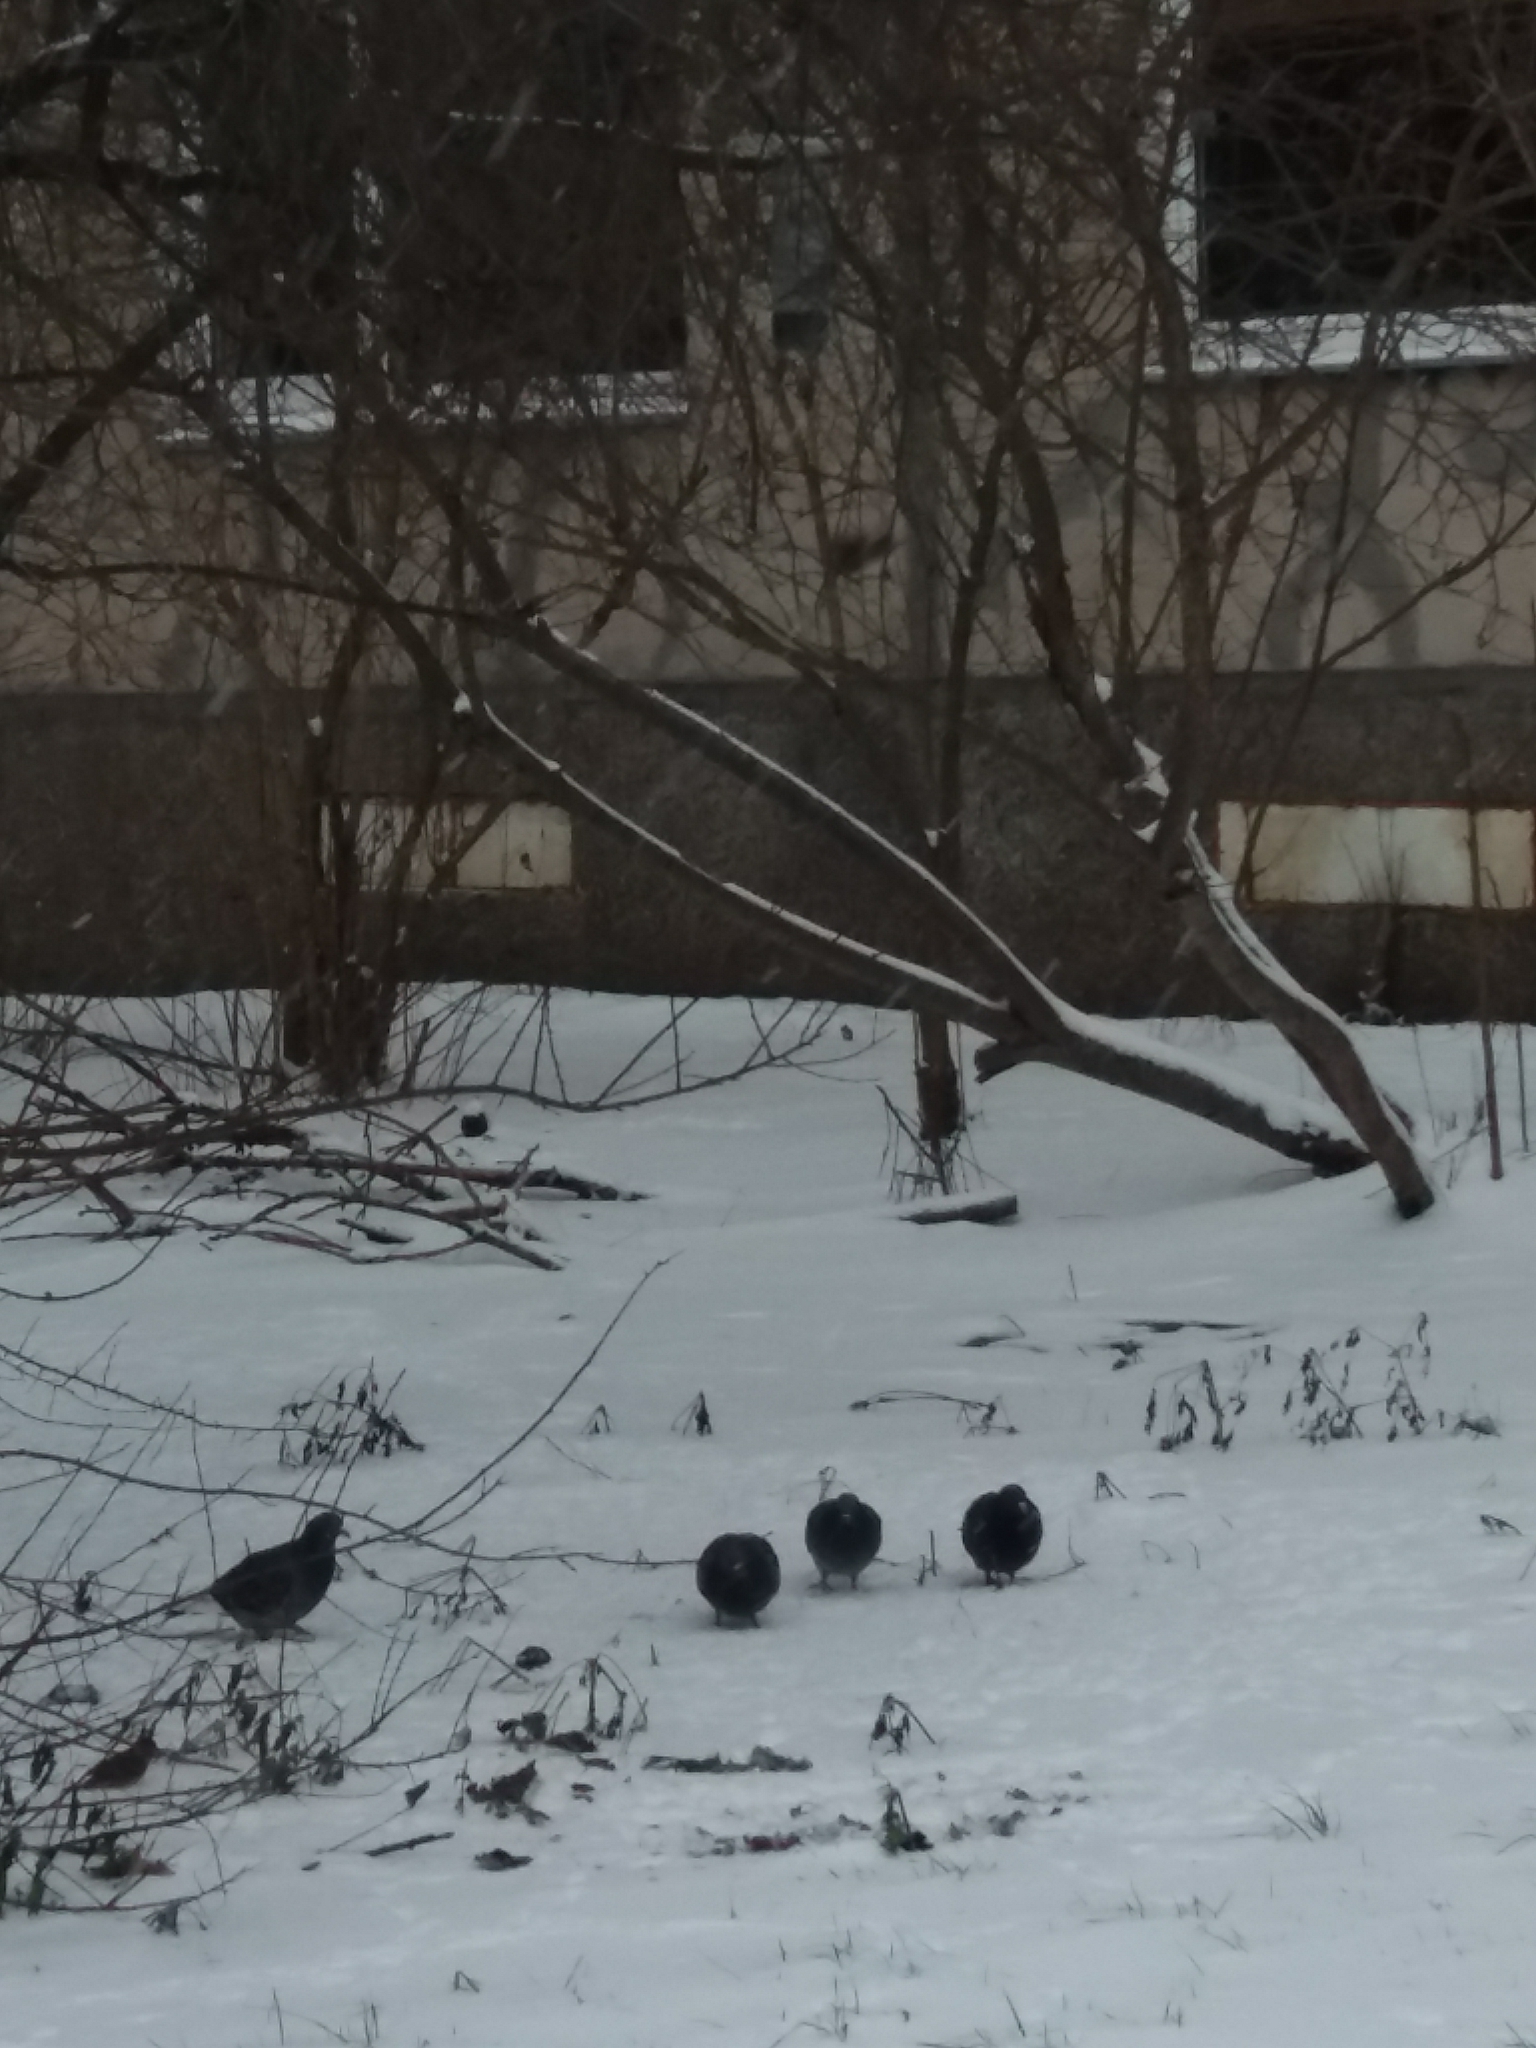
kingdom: Animalia
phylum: Chordata
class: Aves
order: Columbiformes
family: Columbidae
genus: Columba
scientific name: Columba livia
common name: Rock pigeon
